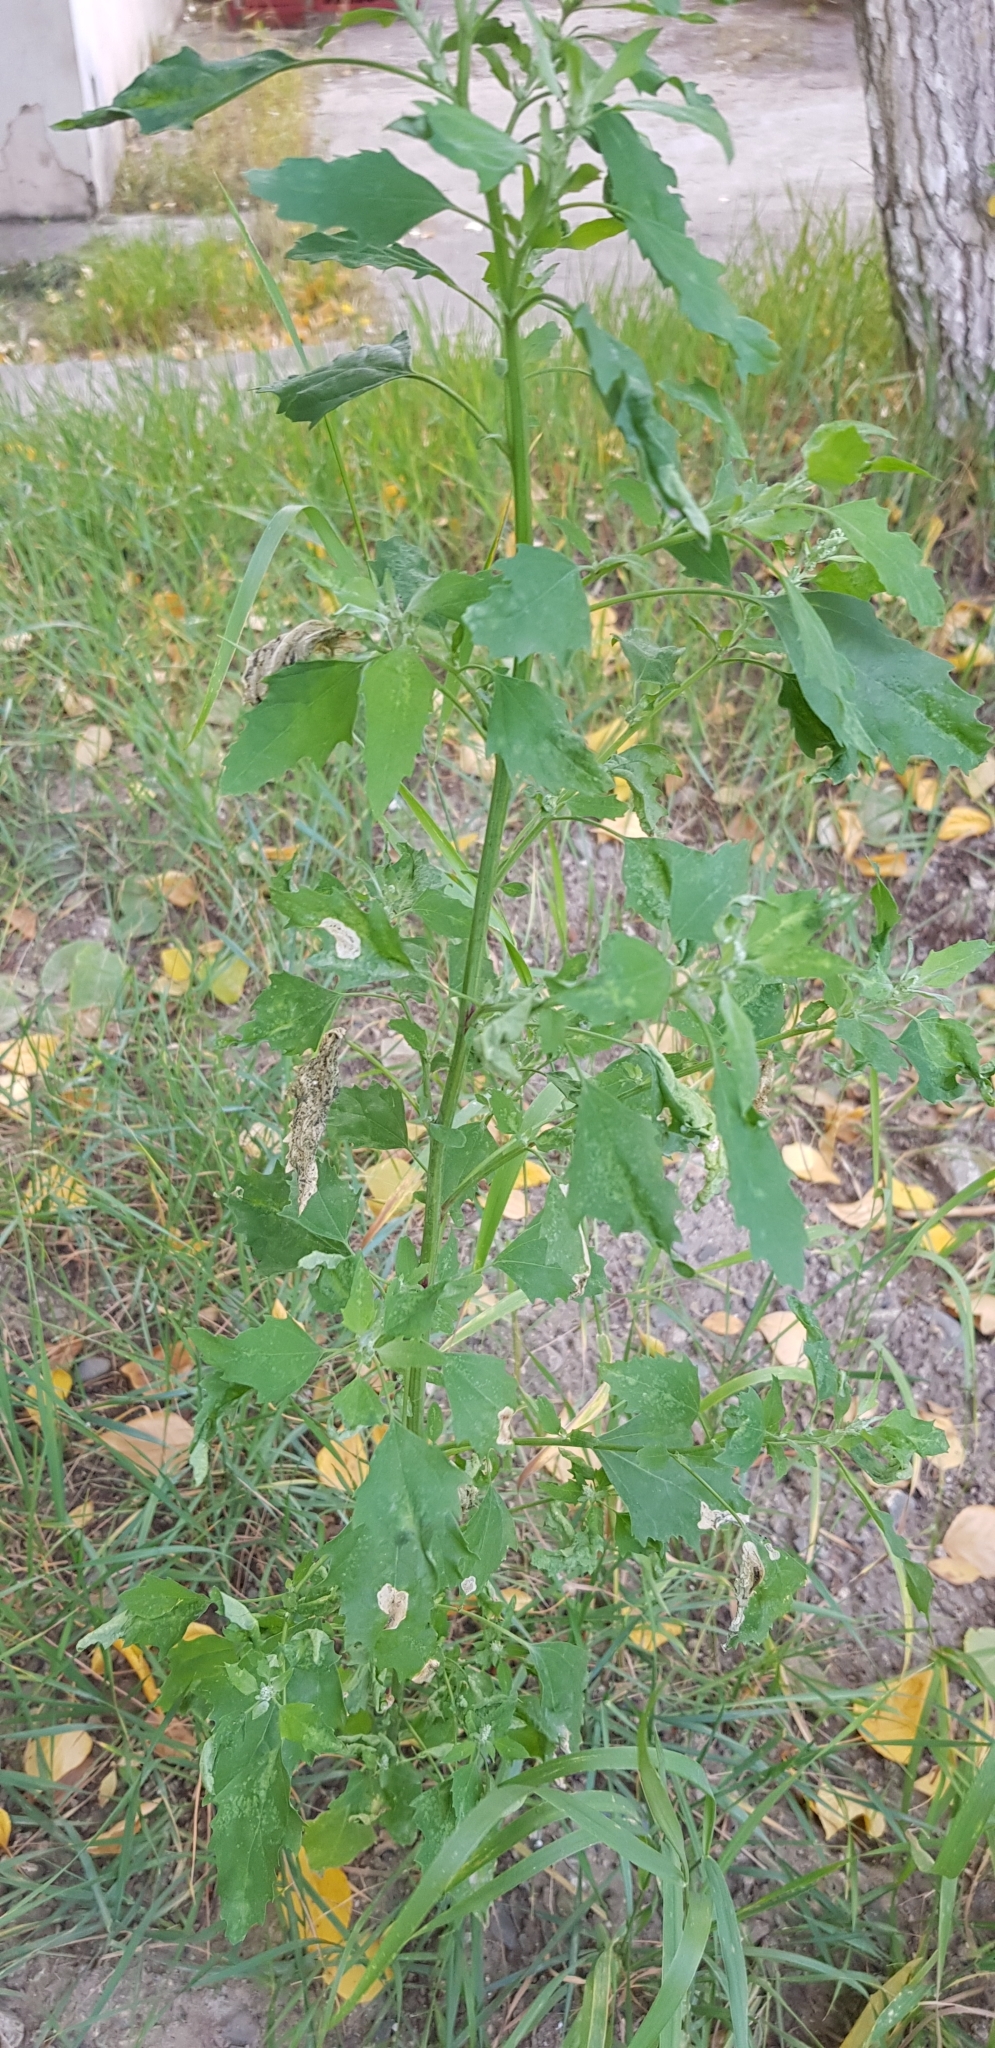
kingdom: Plantae
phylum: Tracheophyta
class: Magnoliopsida
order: Caryophyllales
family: Amaranthaceae
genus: Chenopodium
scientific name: Chenopodium album
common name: Fat-hen
